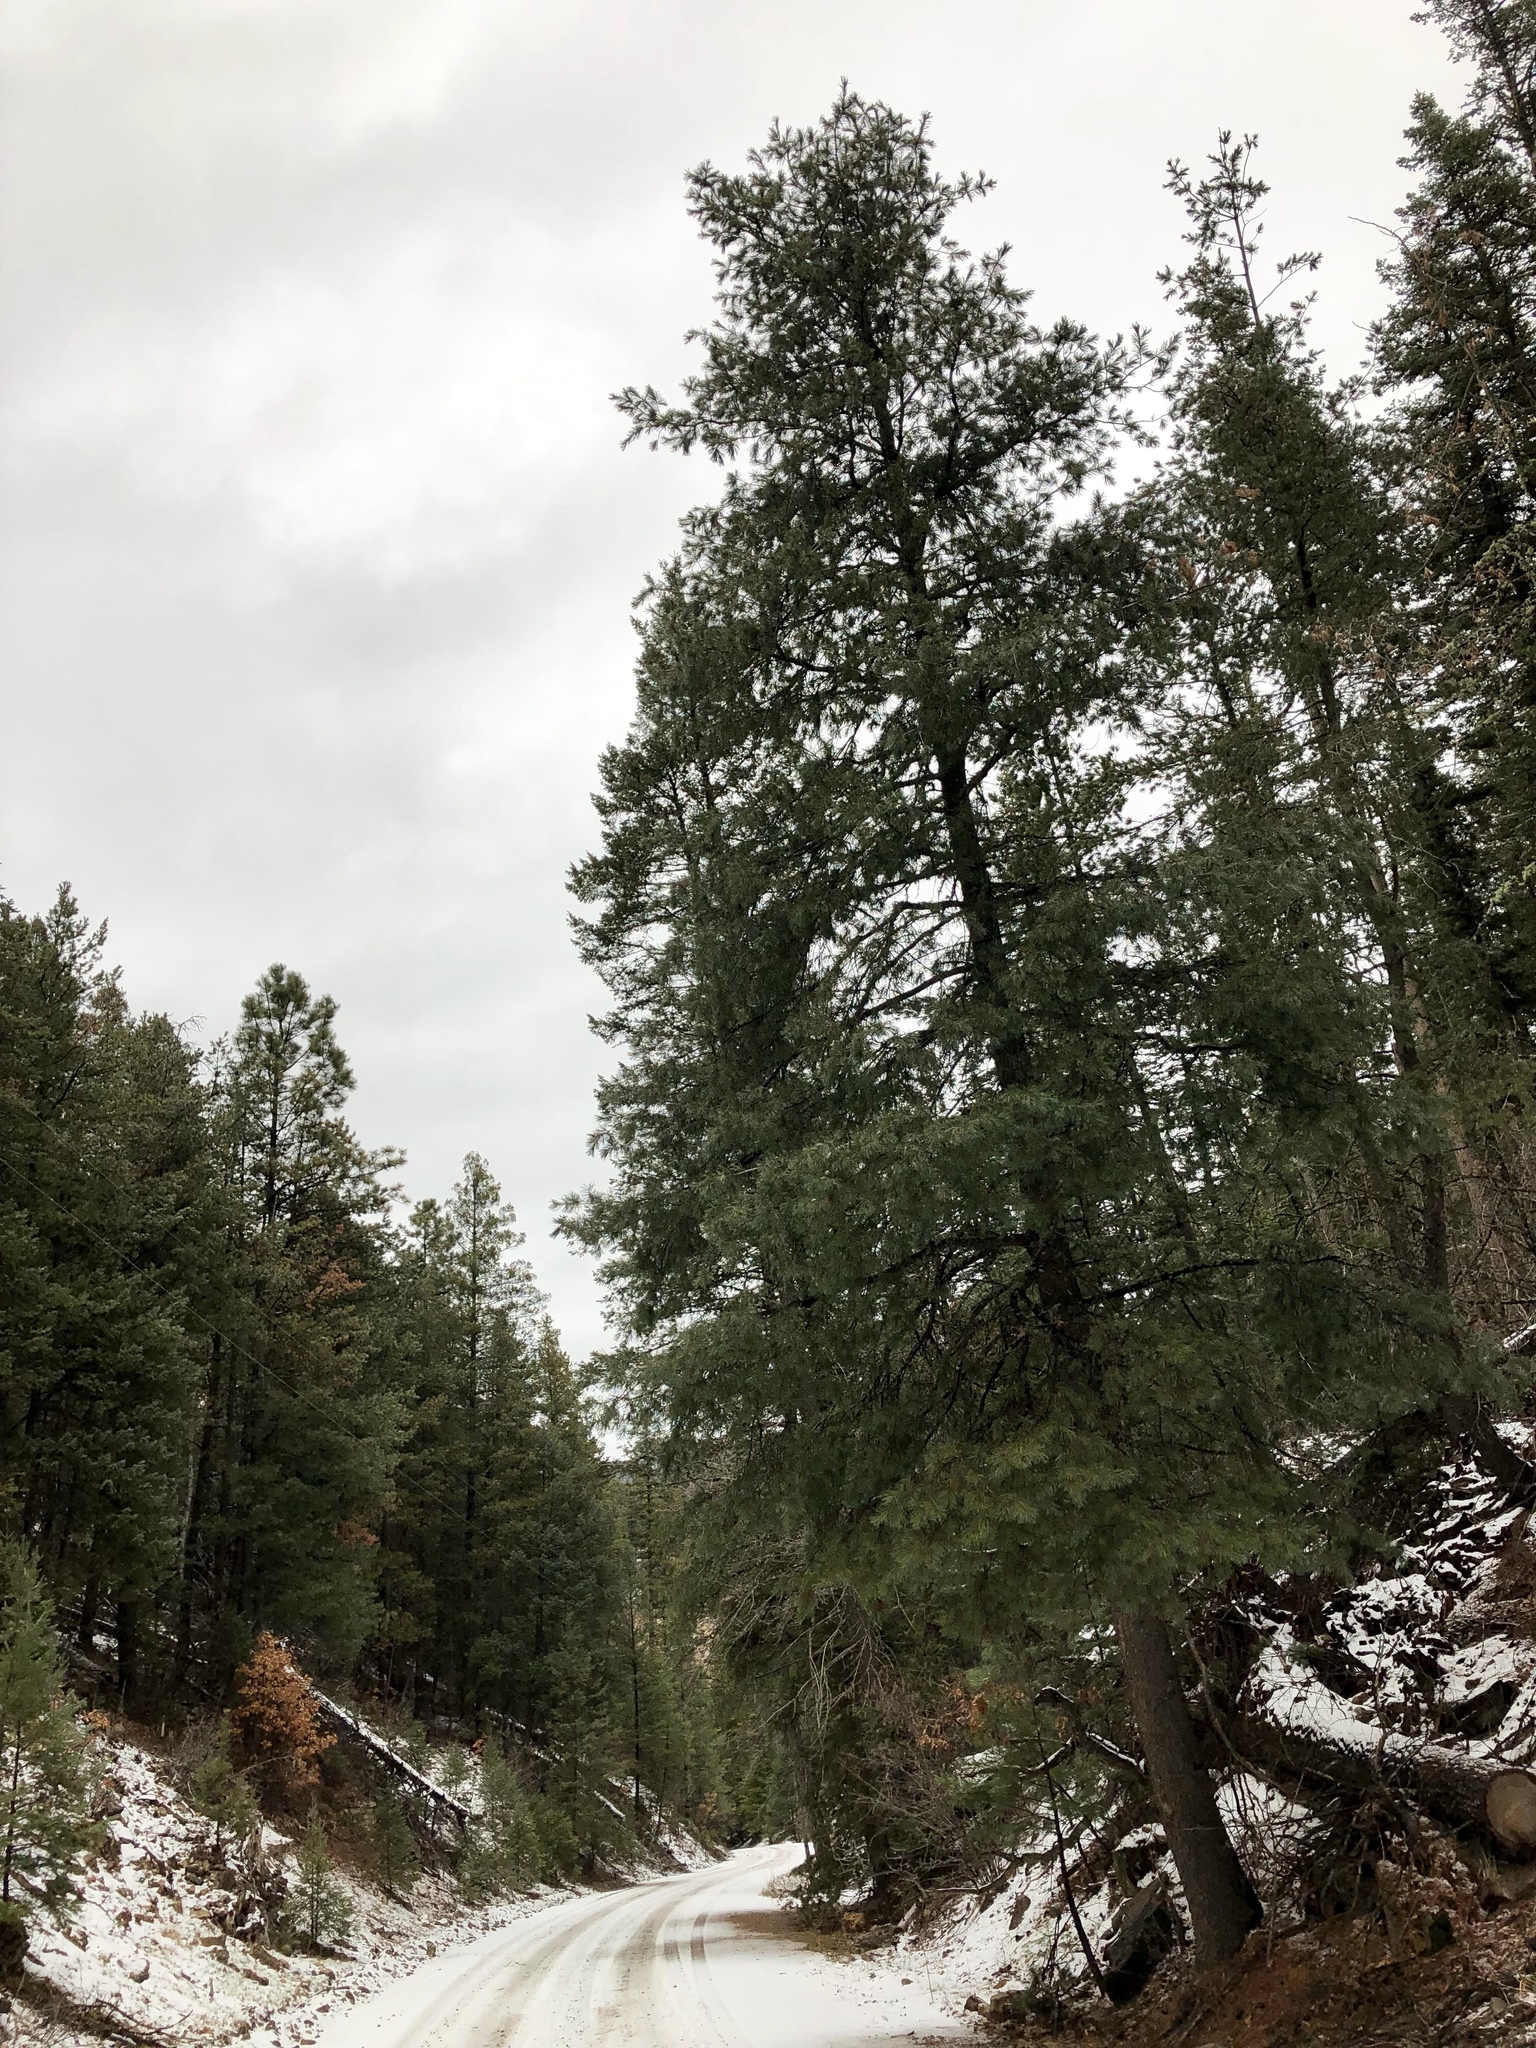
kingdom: Plantae
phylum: Tracheophyta
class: Pinopsida
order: Pinales
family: Pinaceae
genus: Pinus
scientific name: Pinus strobiformis
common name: Southwestern white pine
